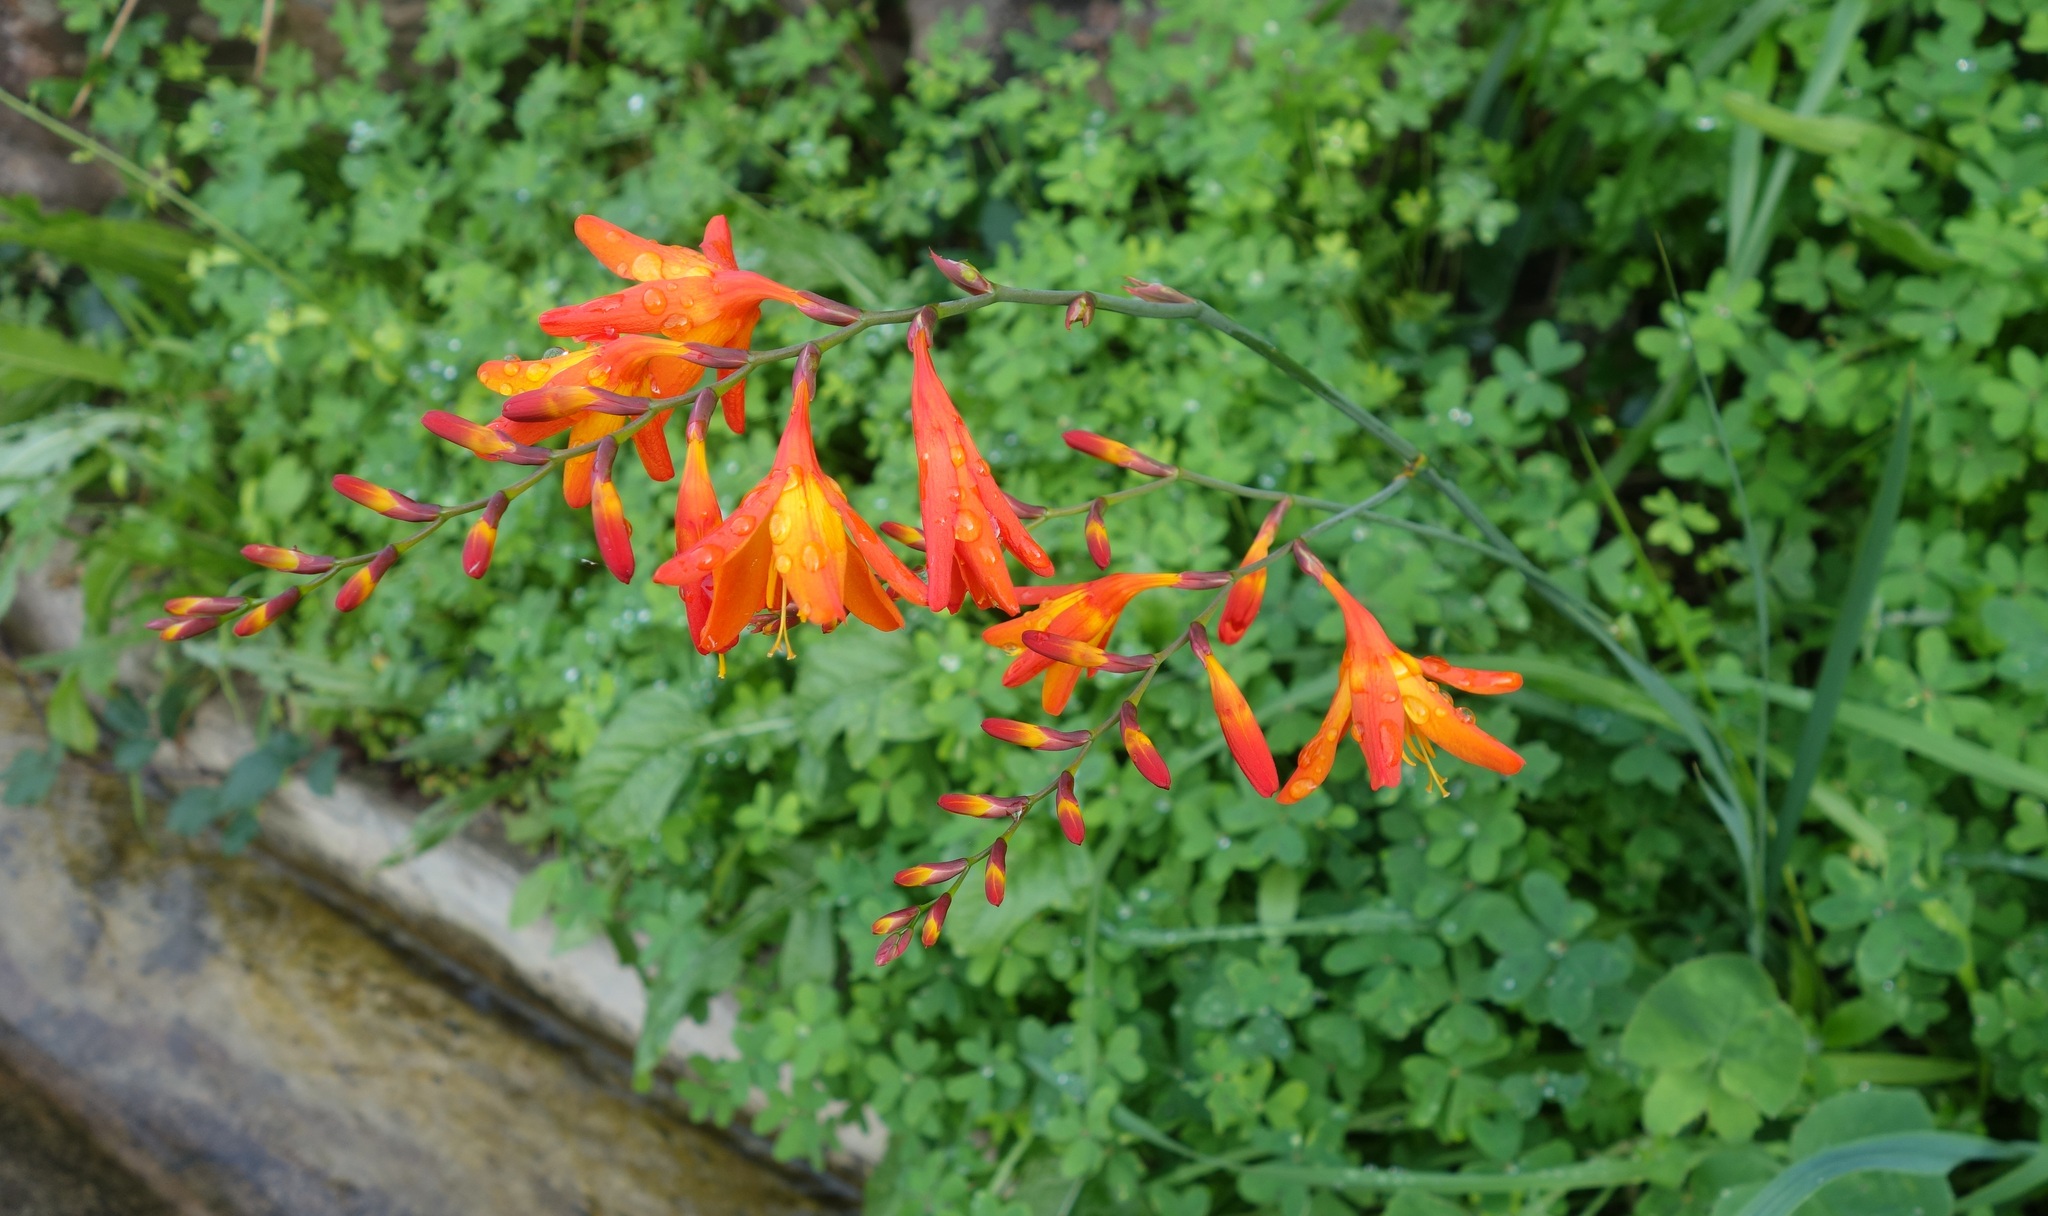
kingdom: Plantae
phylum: Tracheophyta
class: Liliopsida
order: Asparagales
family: Iridaceae
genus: Crocosmia
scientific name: Crocosmia crocosmiiflora
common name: Montbretia
